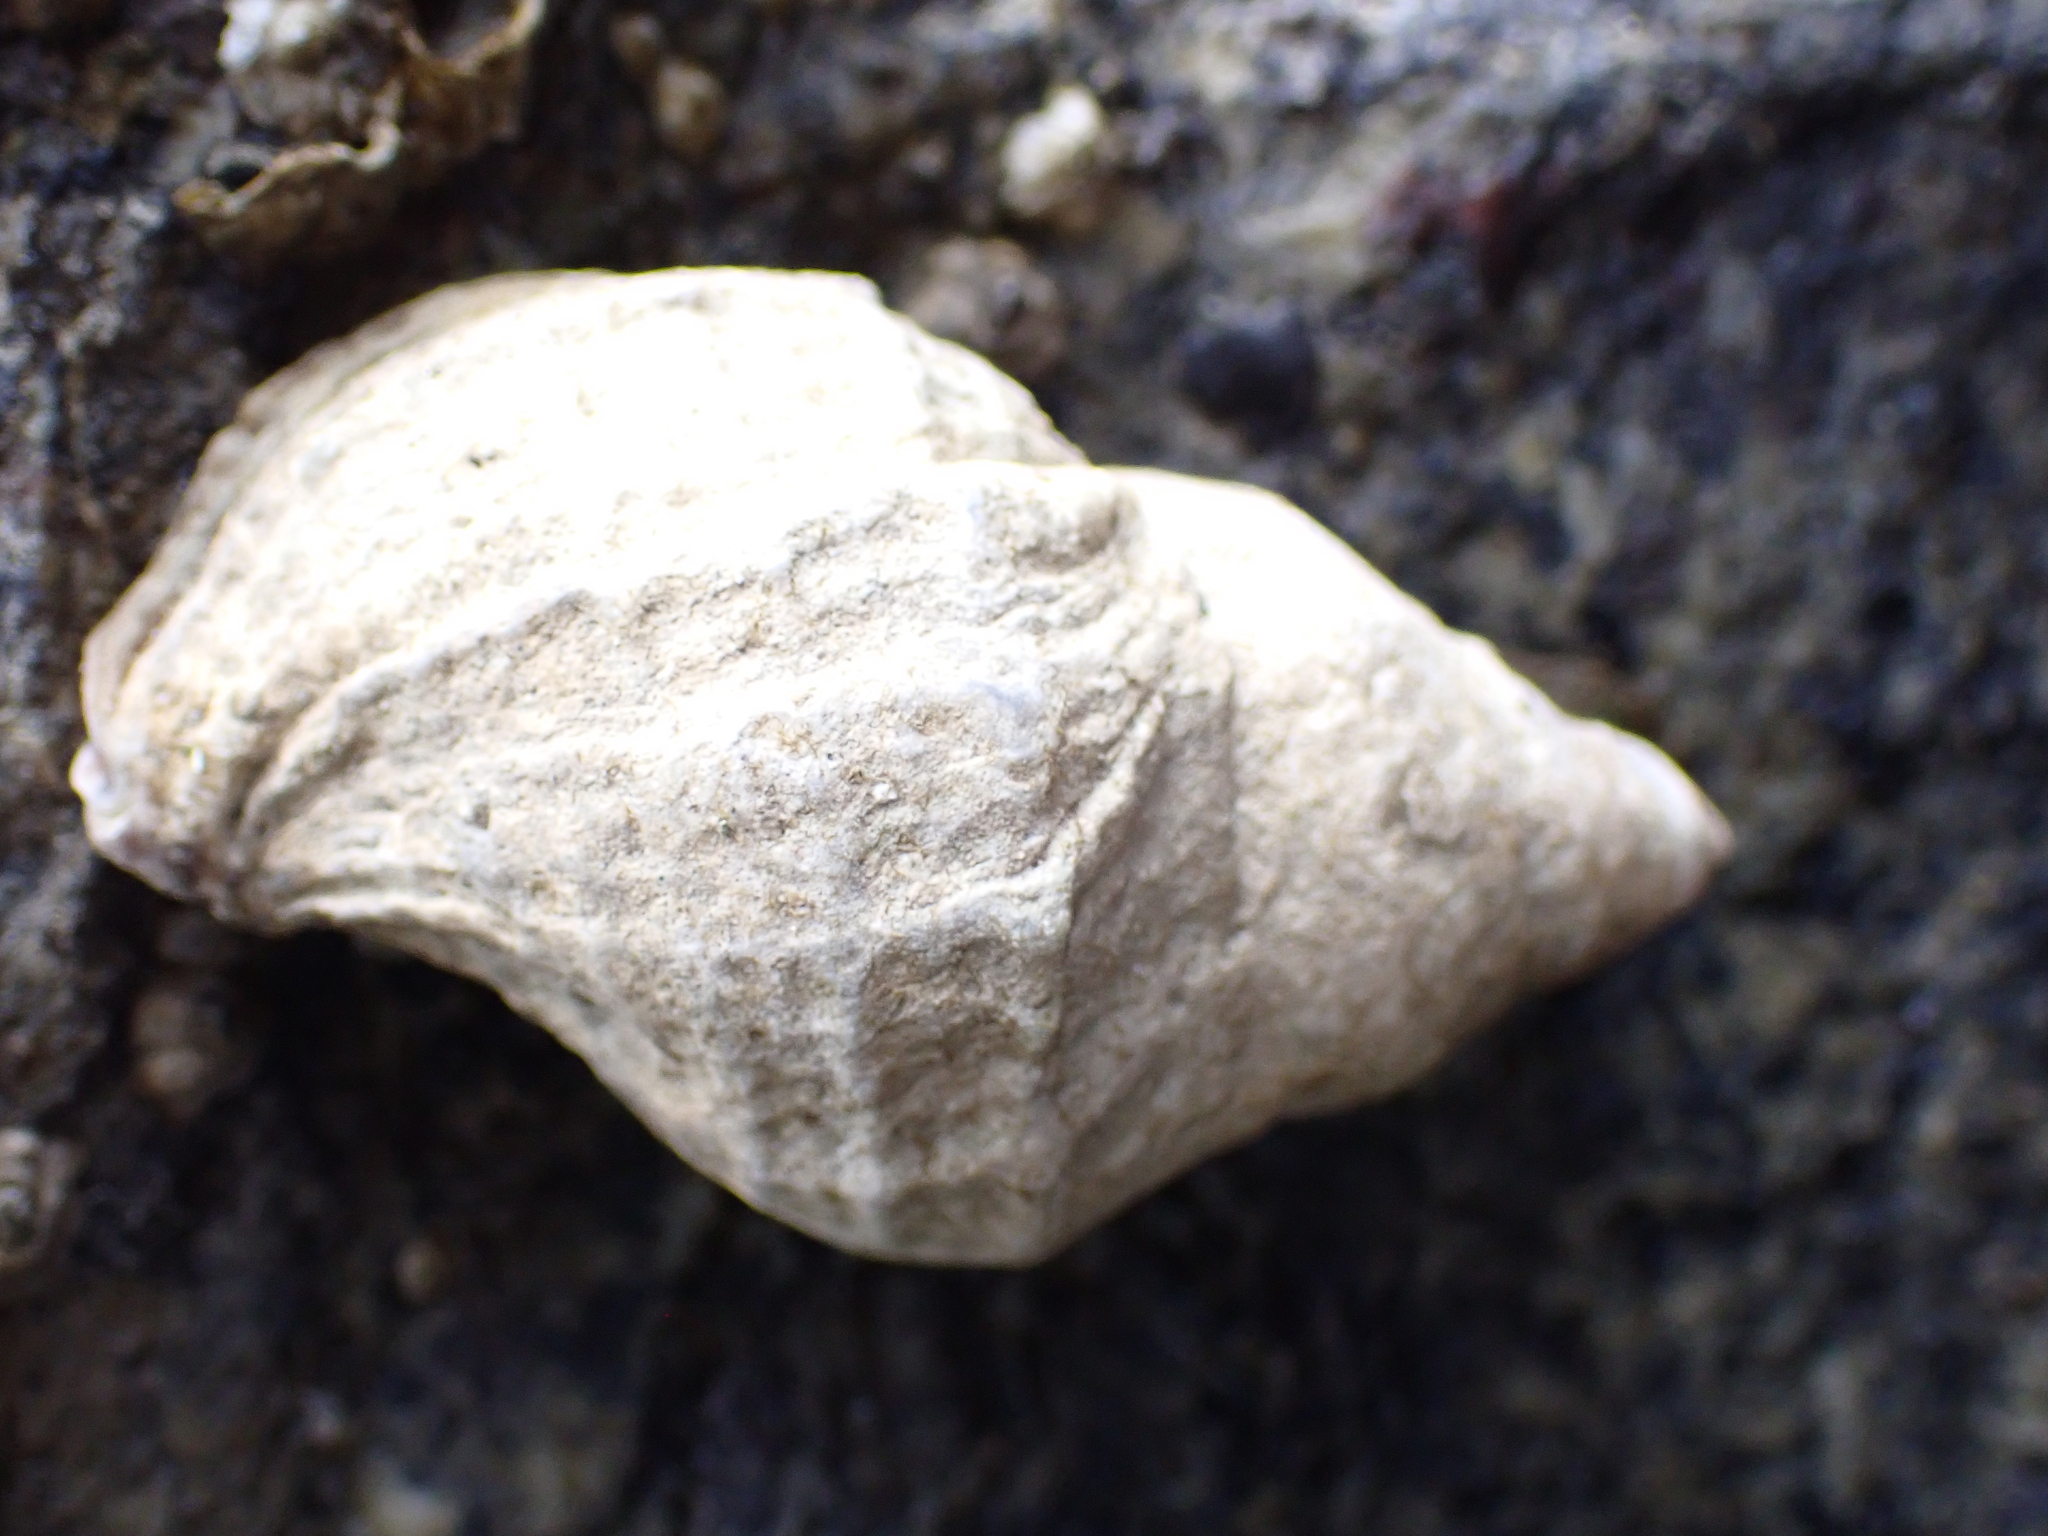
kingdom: Animalia
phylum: Mollusca
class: Gastropoda
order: Neogastropoda
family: Muricidae
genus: Nucella
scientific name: Nucella lamellosa
